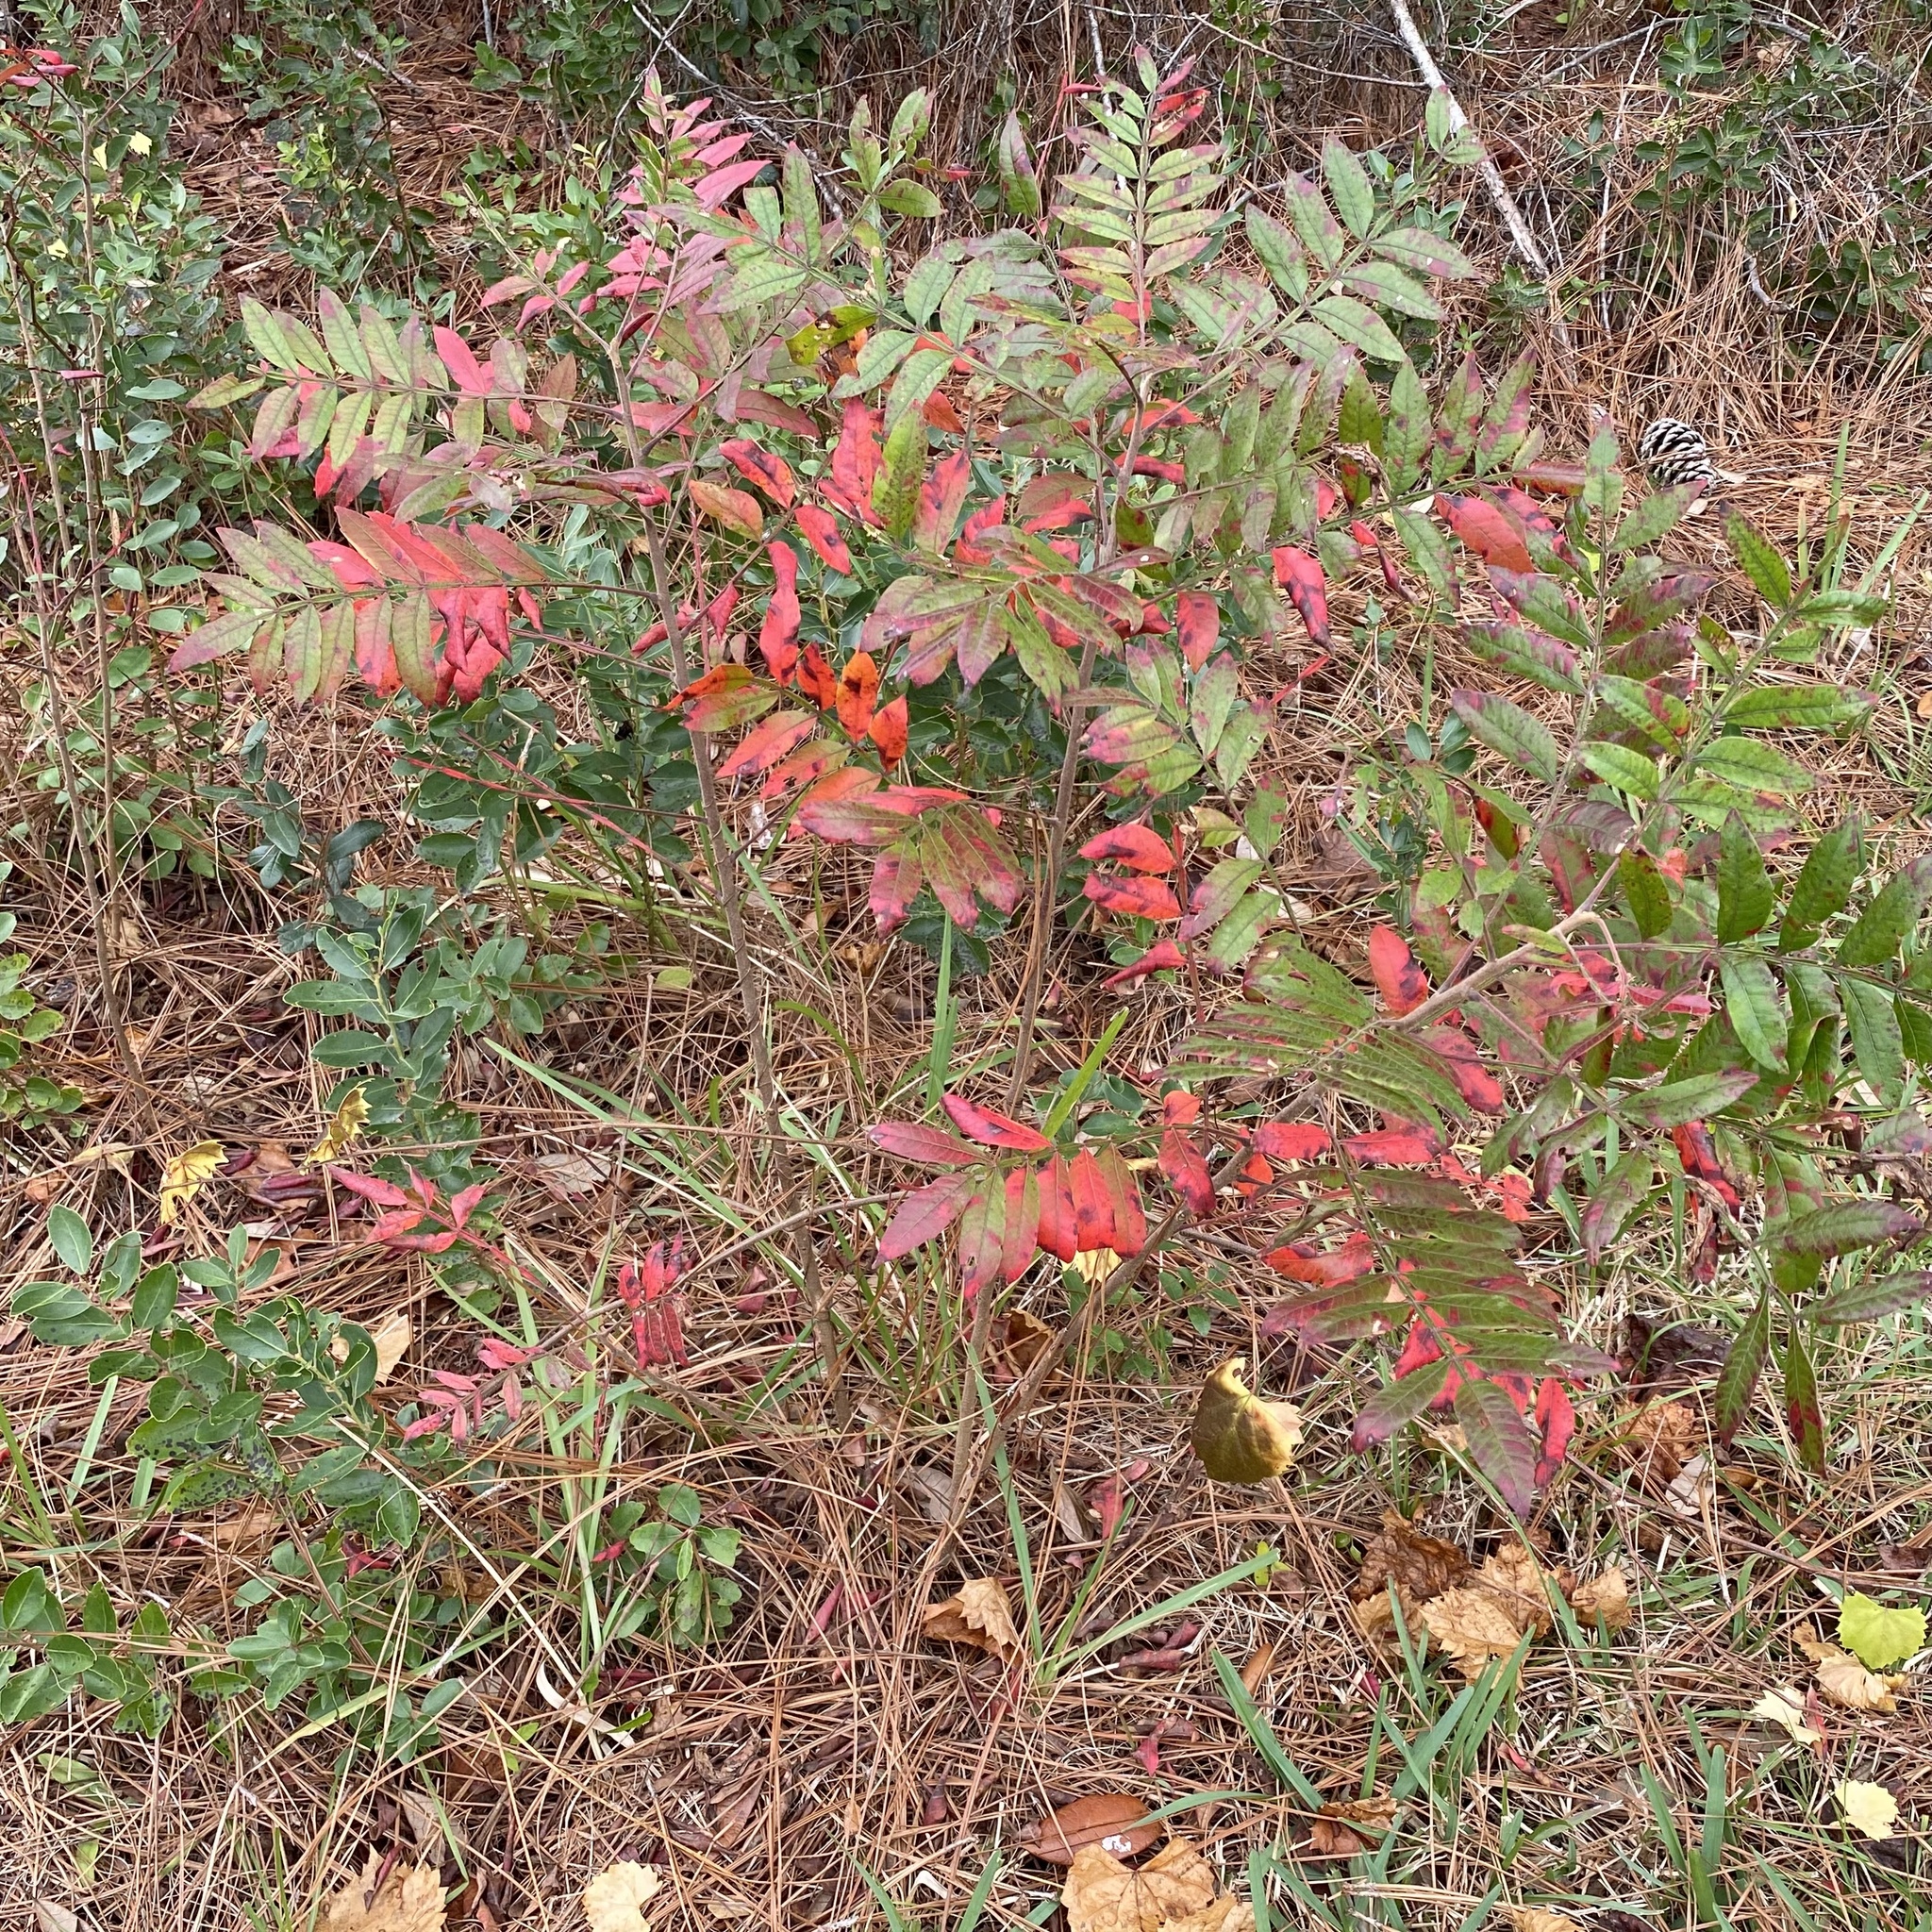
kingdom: Plantae
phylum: Tracheophyta
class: Magnoliopsida
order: Sapindales
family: Anacardiaceae
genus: Rhus
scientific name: Rhus copallina
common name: Shining sumac
